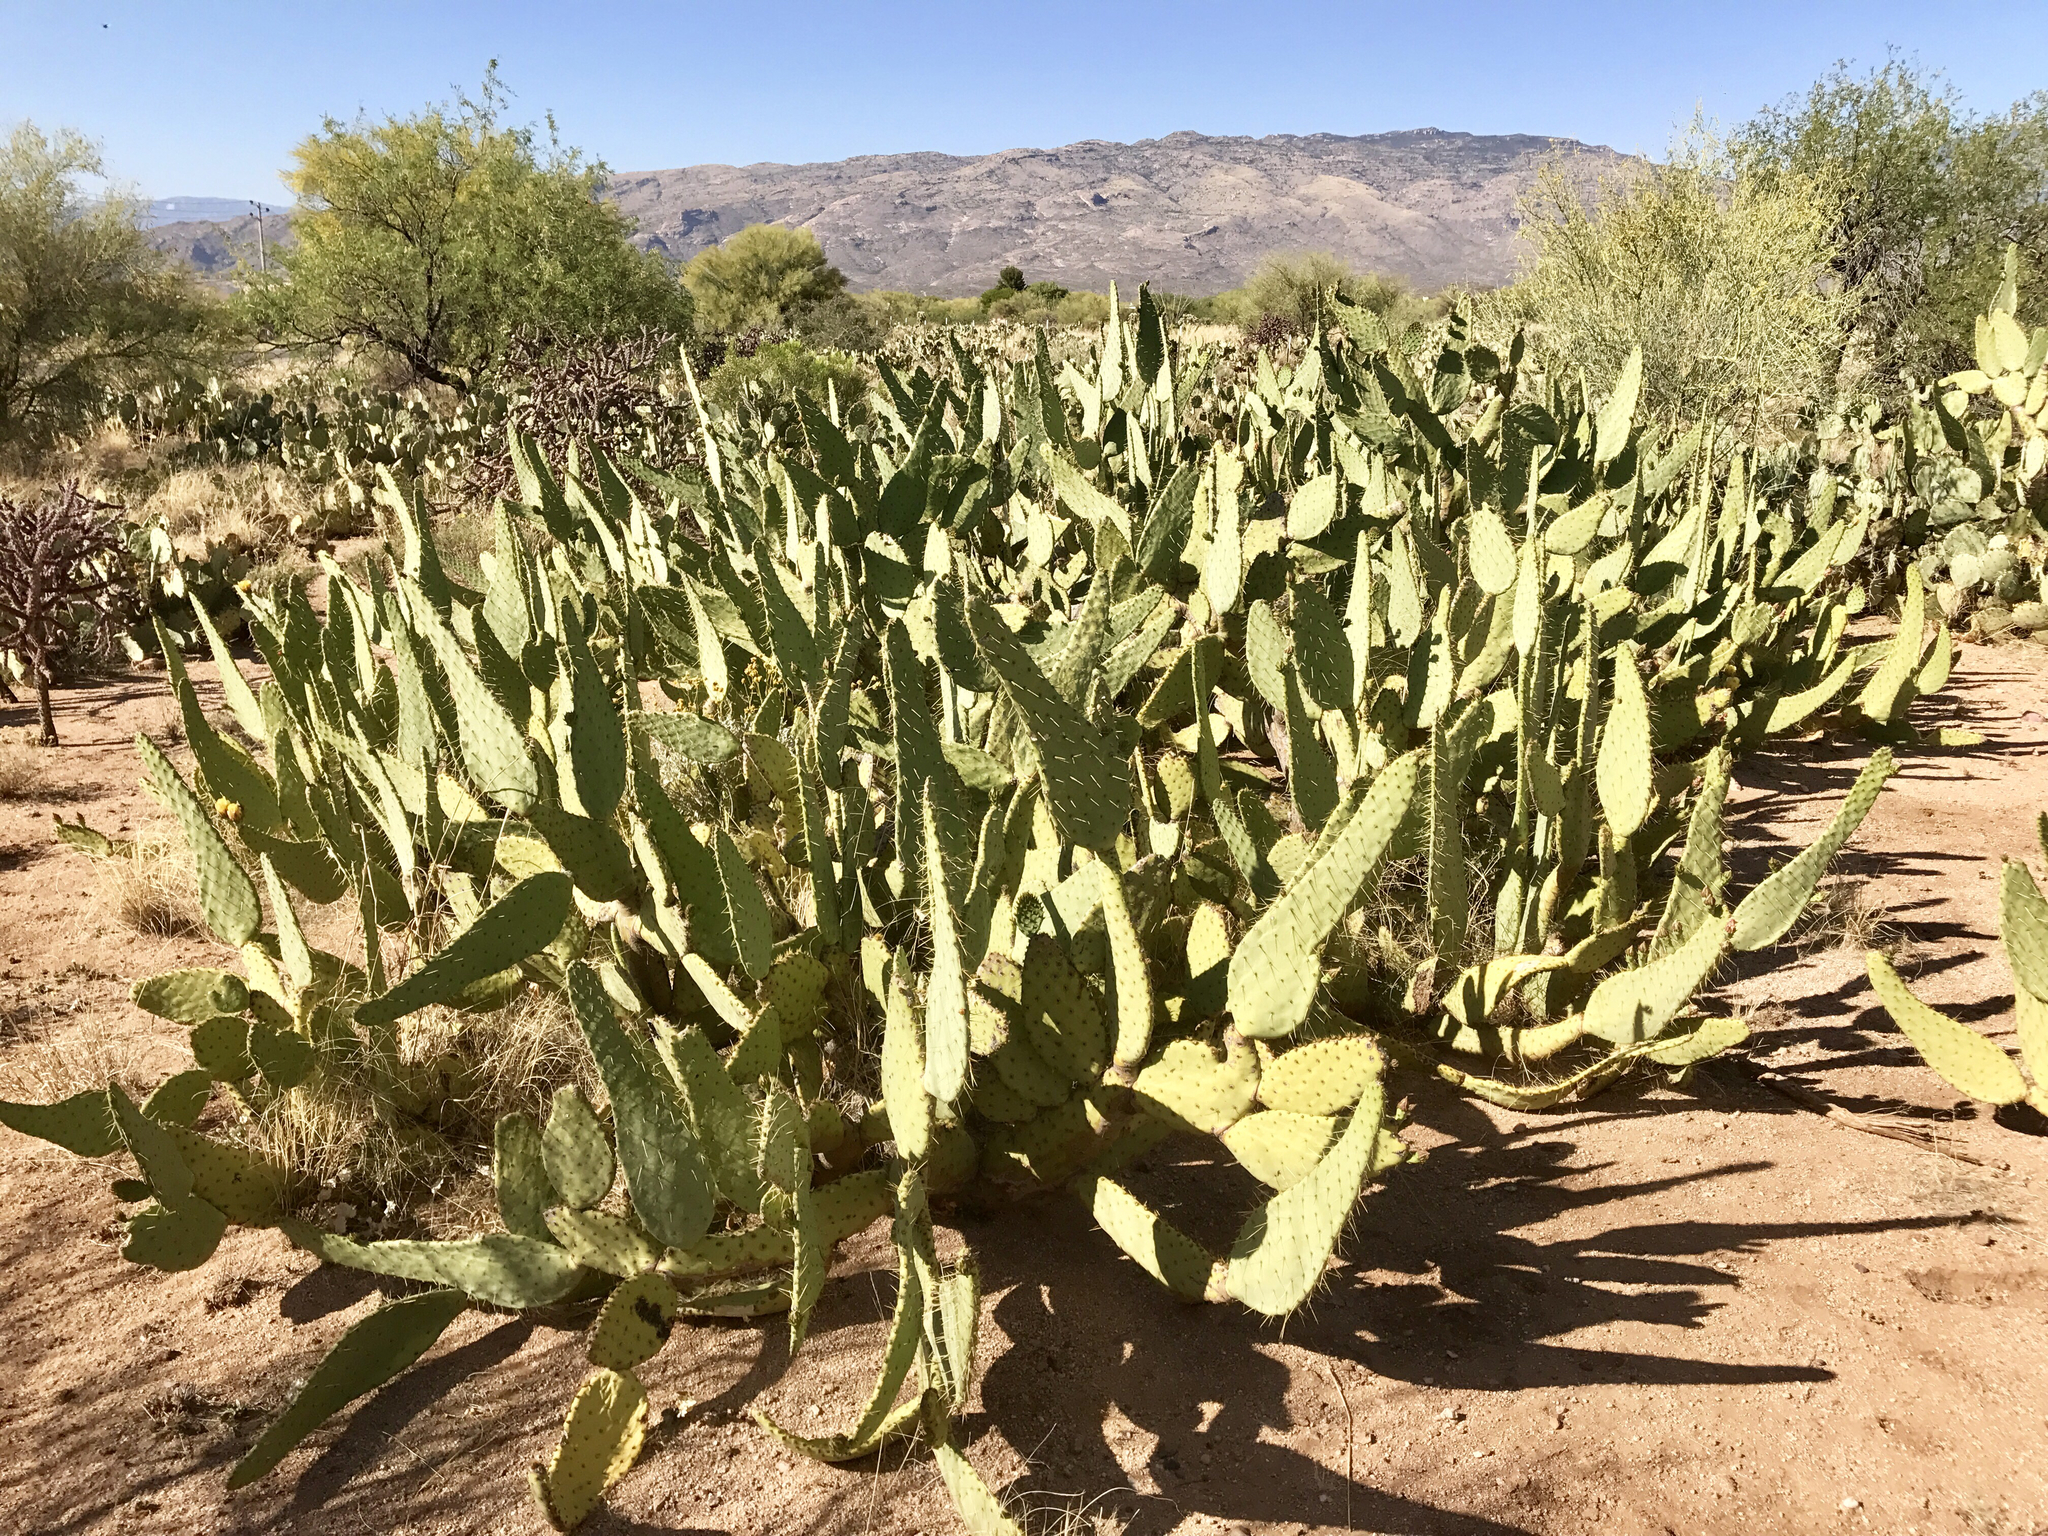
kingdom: Plantae
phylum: Tracheophyta
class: Magnoliopsida
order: Caryophyllales
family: Cactaceae
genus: Opuntia
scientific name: Opuntia engelmannii
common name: Cactus-apple
